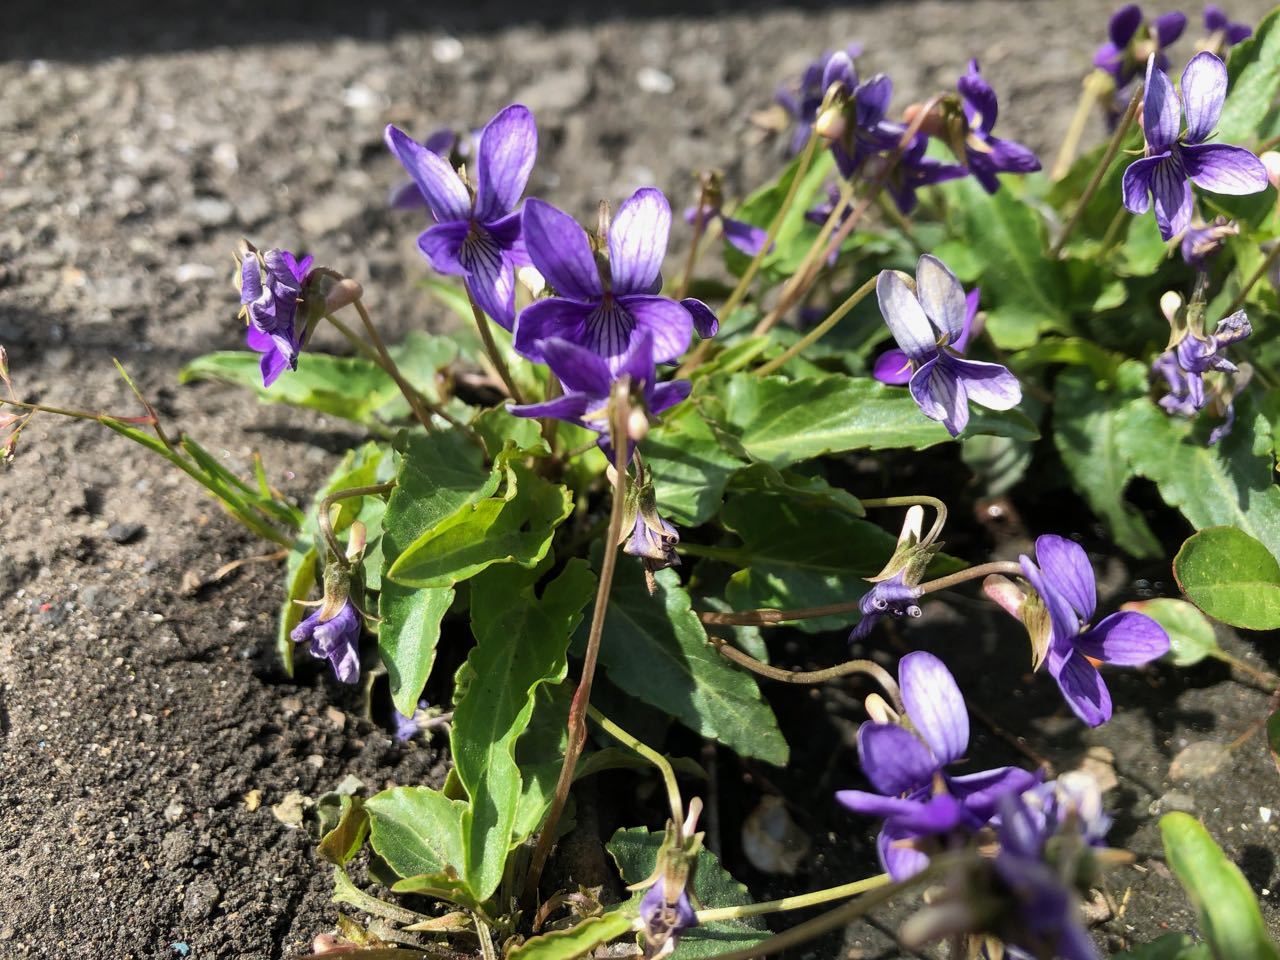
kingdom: Plantae
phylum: Tracheophyta
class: Magnoliopsida
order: Malpighiales
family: Violaceae
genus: Viola
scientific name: Viola inconspicua
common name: Long sepal violet
